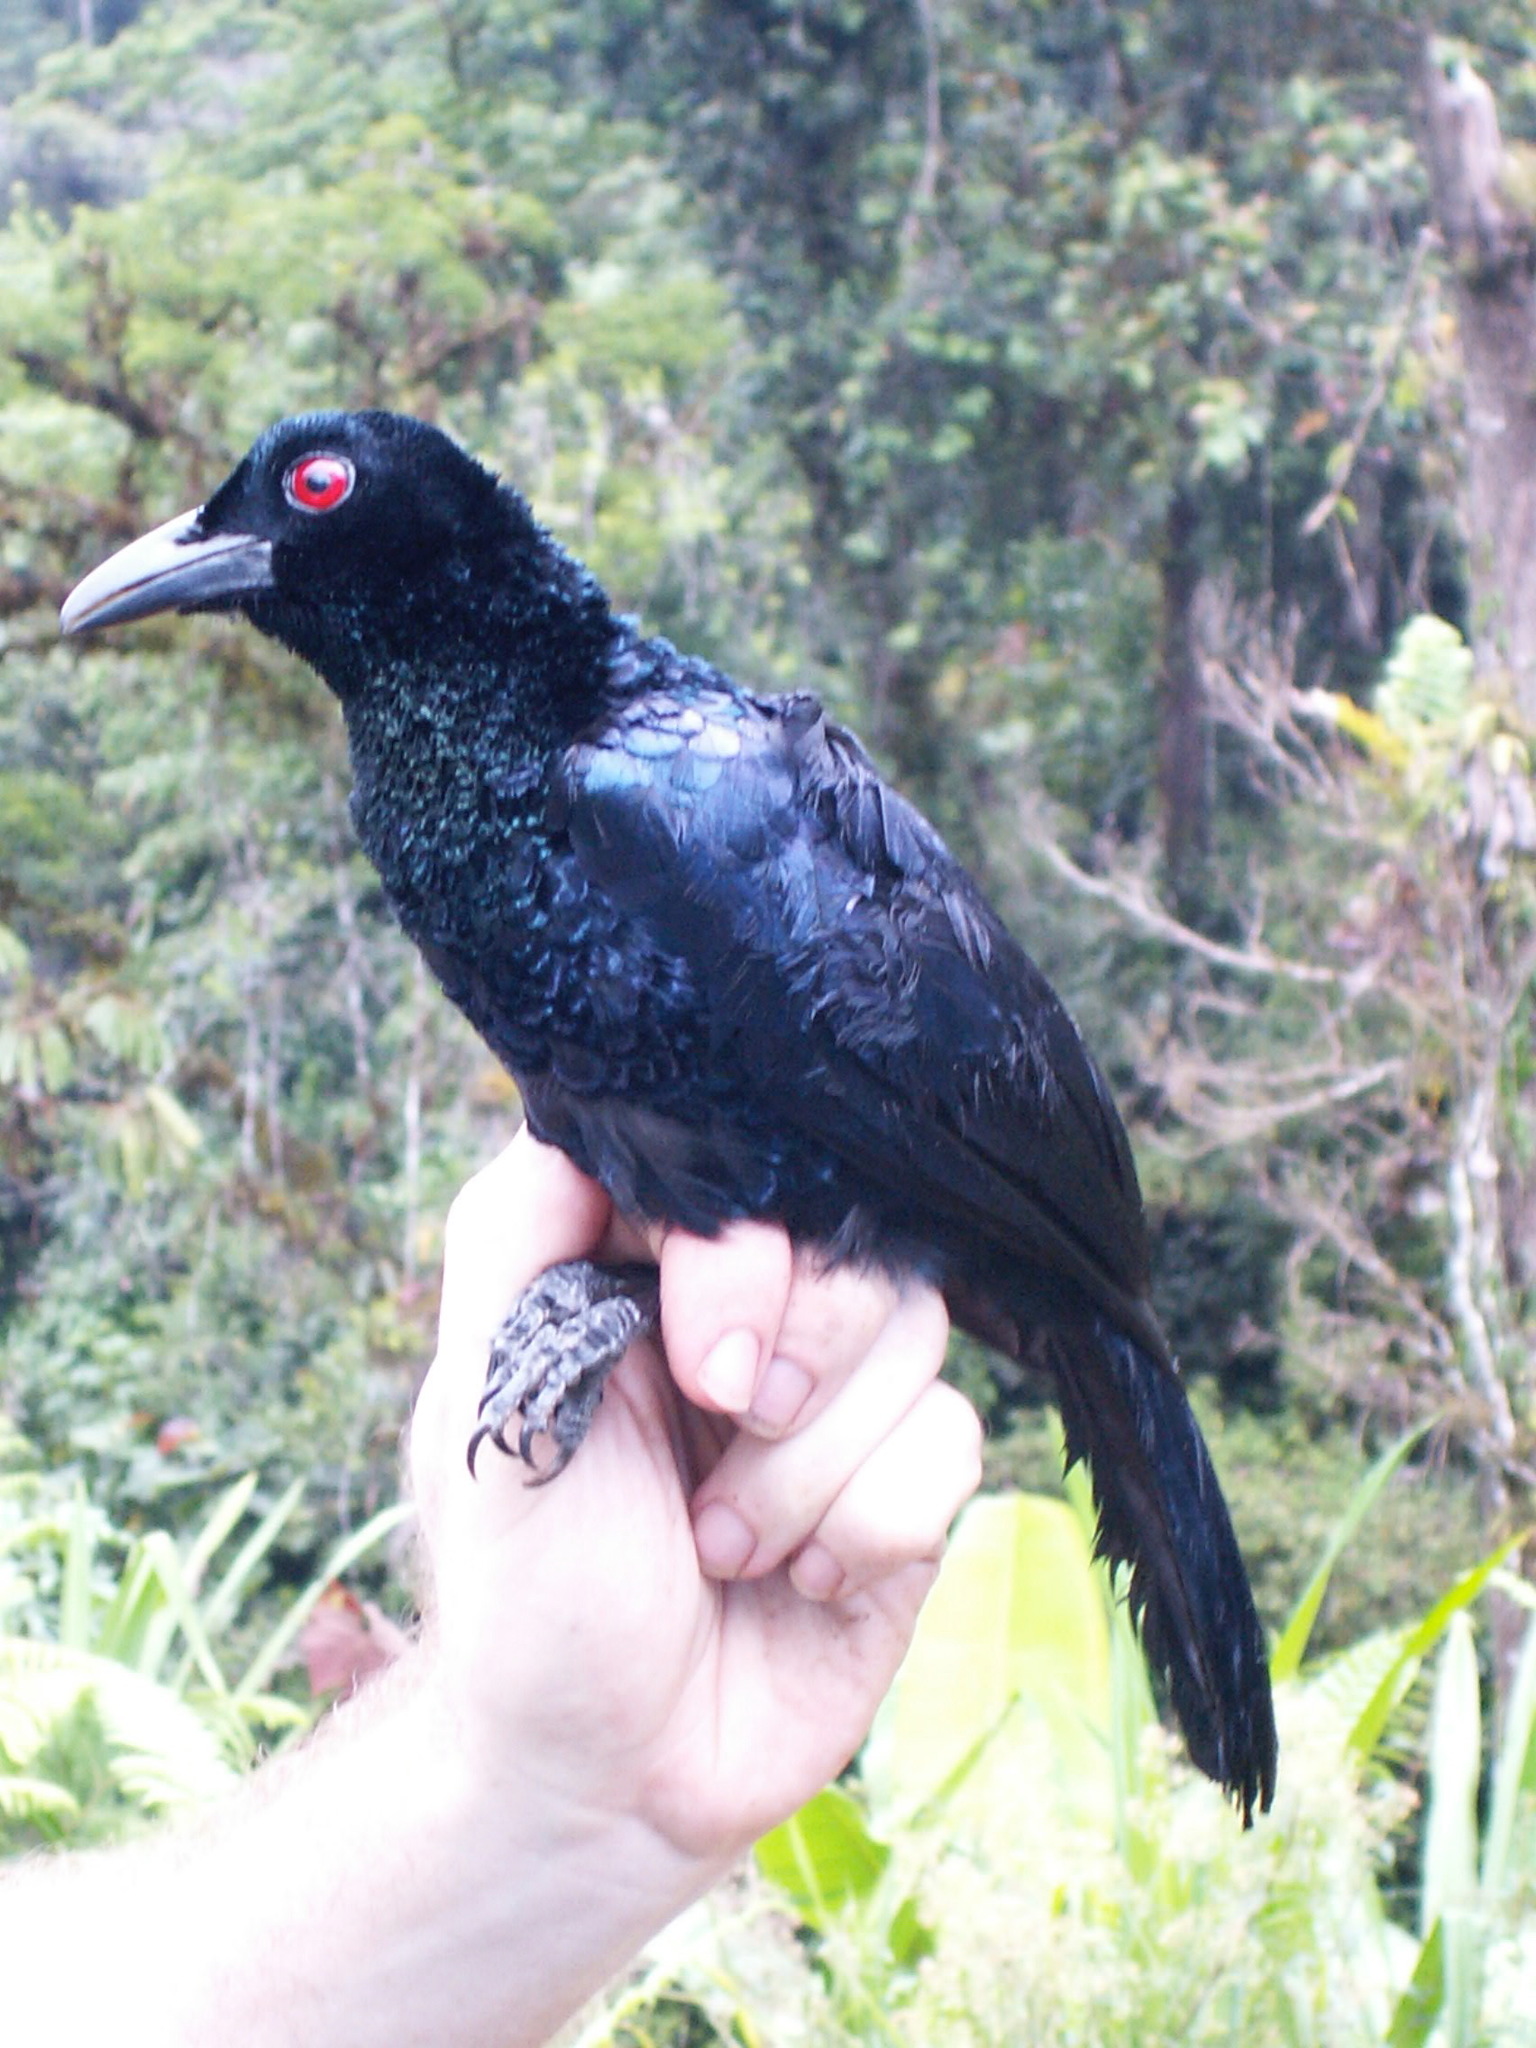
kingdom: Animalia
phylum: Chordata
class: Aves
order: Passeriformes
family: Paradisaeidae
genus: Manucodia
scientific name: Manucodia ater
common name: Glossy-mantled manucode
